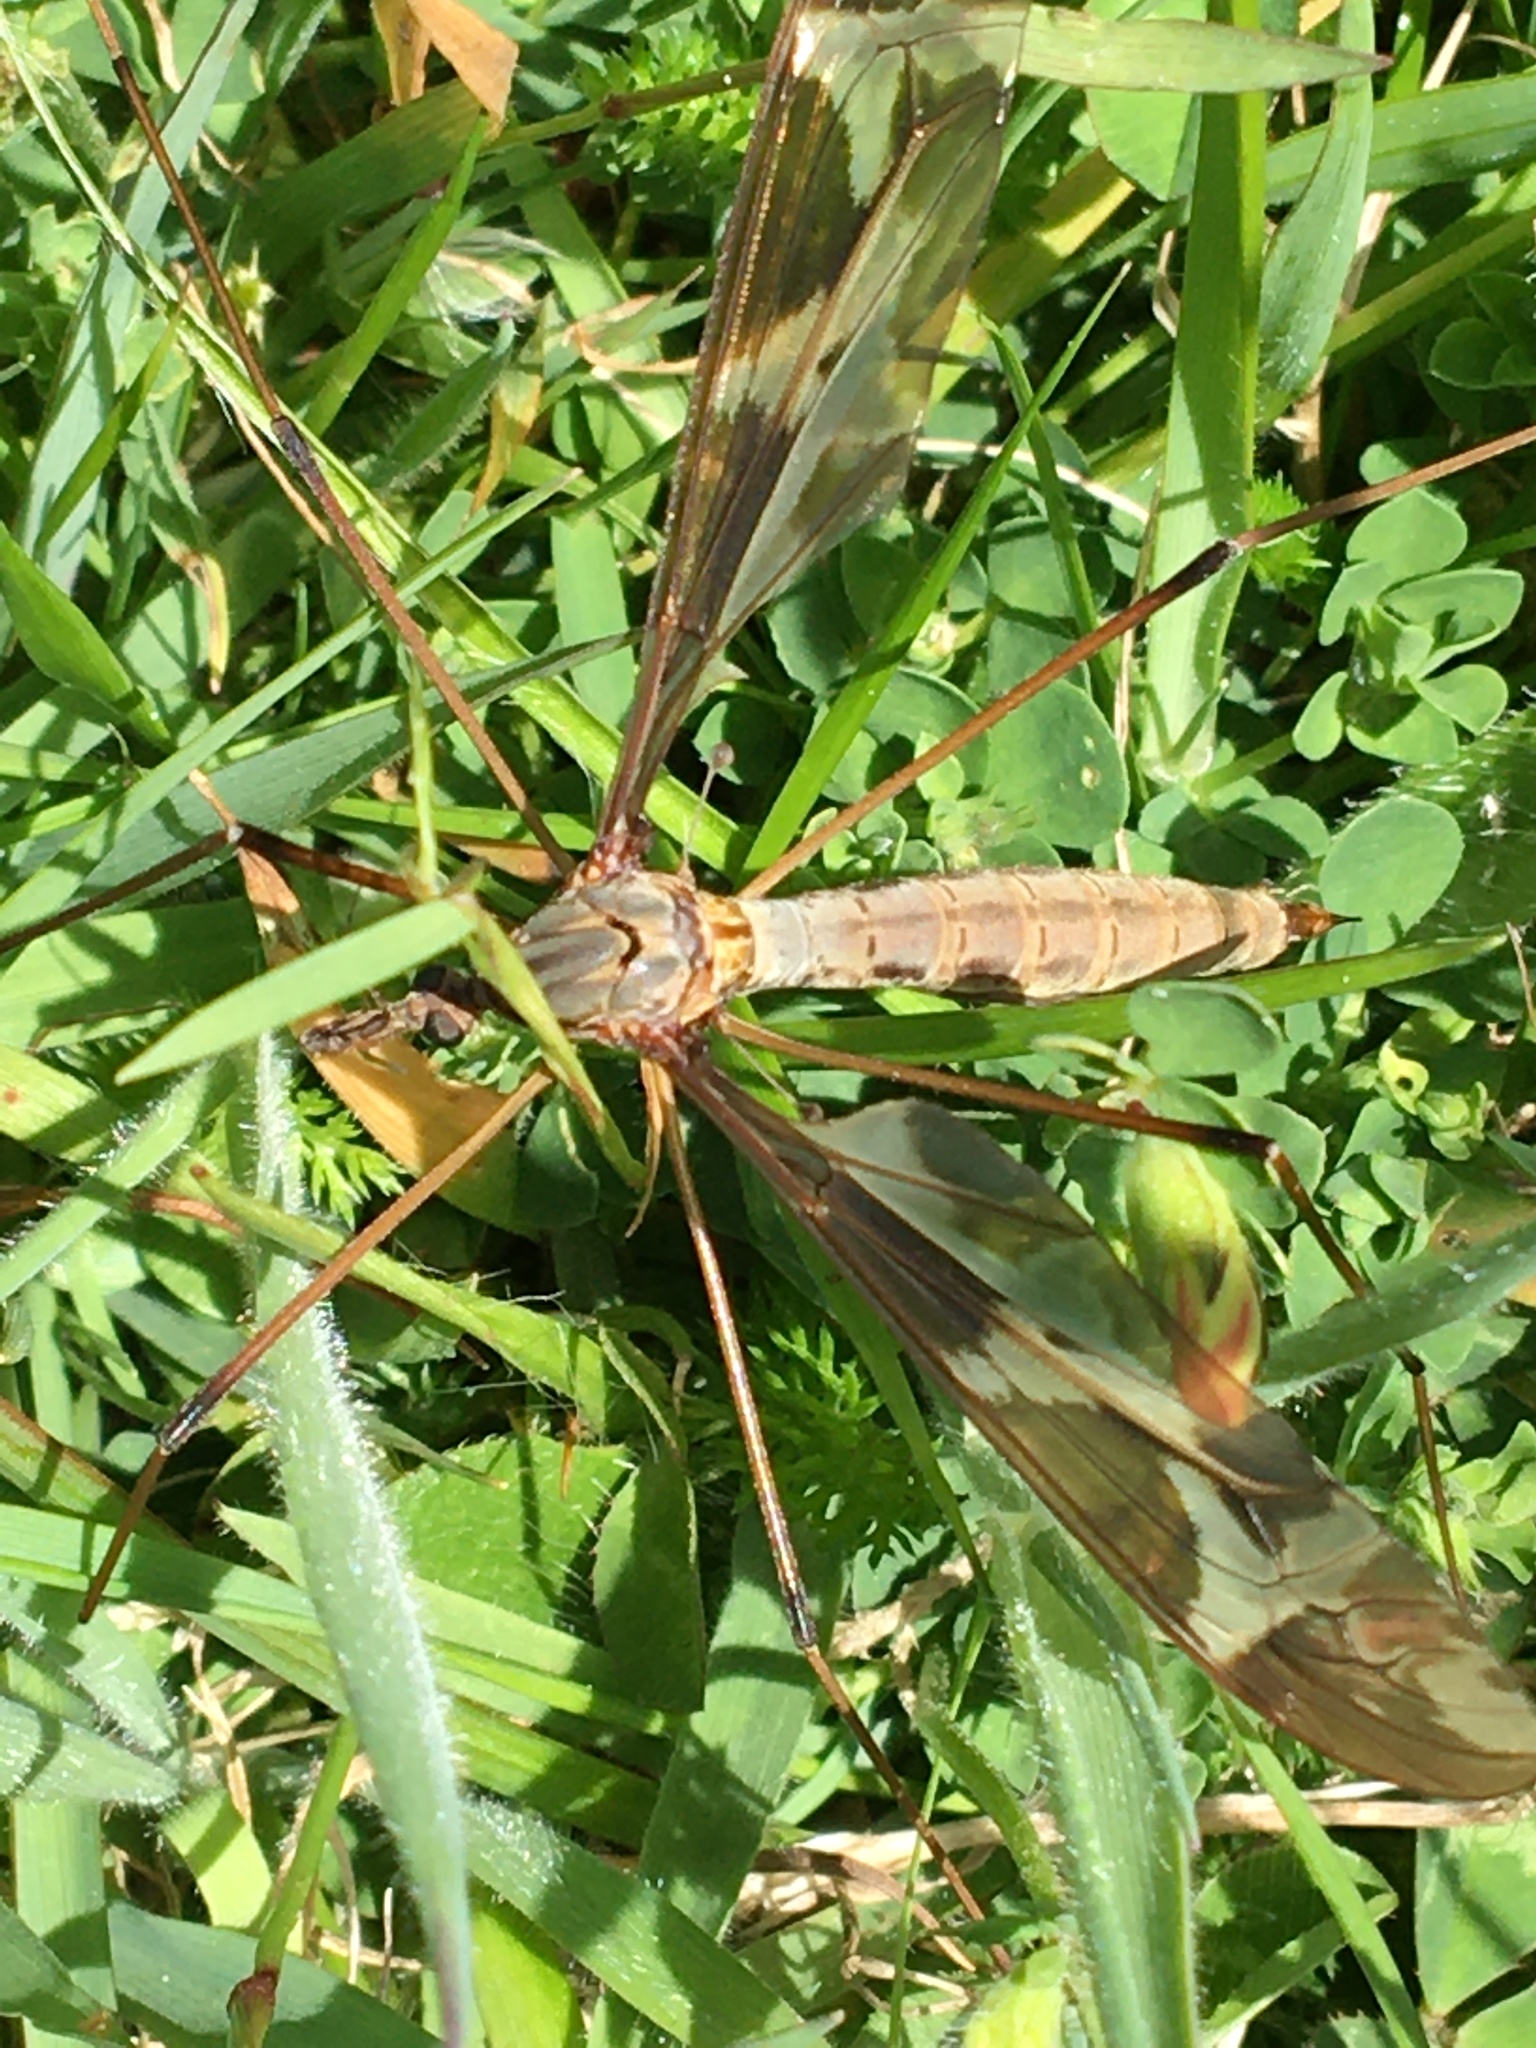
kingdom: Animalia
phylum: Arthropoda
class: Insecta
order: Diptera
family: Tipulidae
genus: Tipula
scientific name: Tipula maxima
